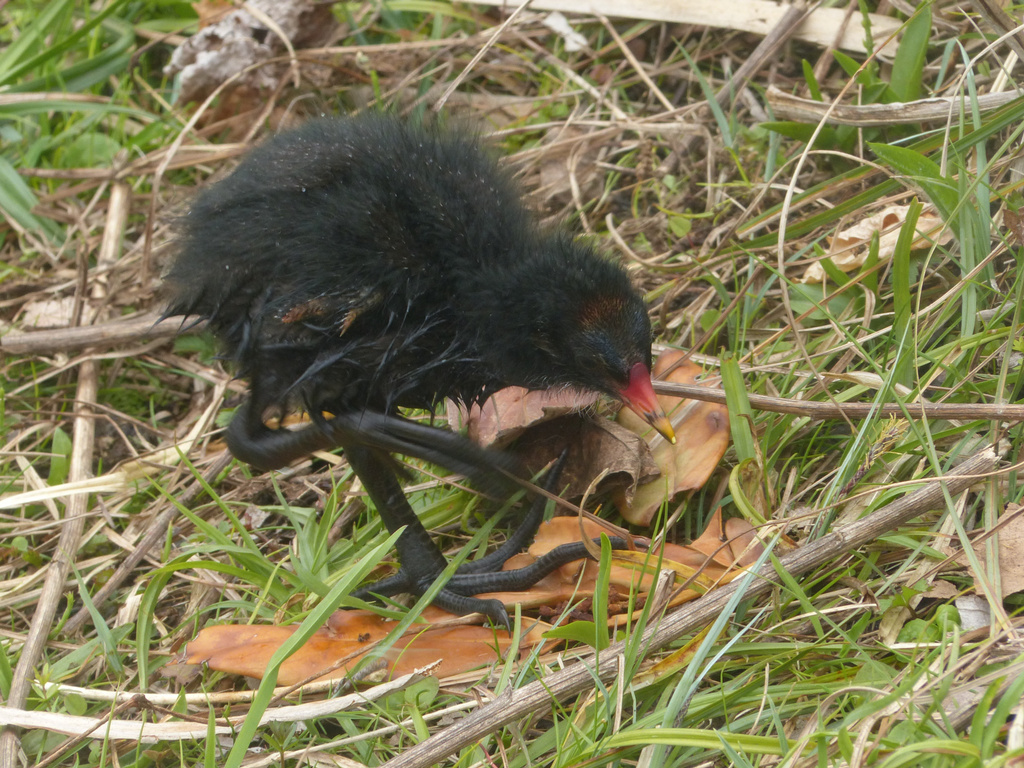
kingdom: Animalia
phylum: Chordata
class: Aves
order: Gruiformes
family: Rallidae
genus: Gallinula
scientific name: Gallinula chloropus
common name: Common moorhen
